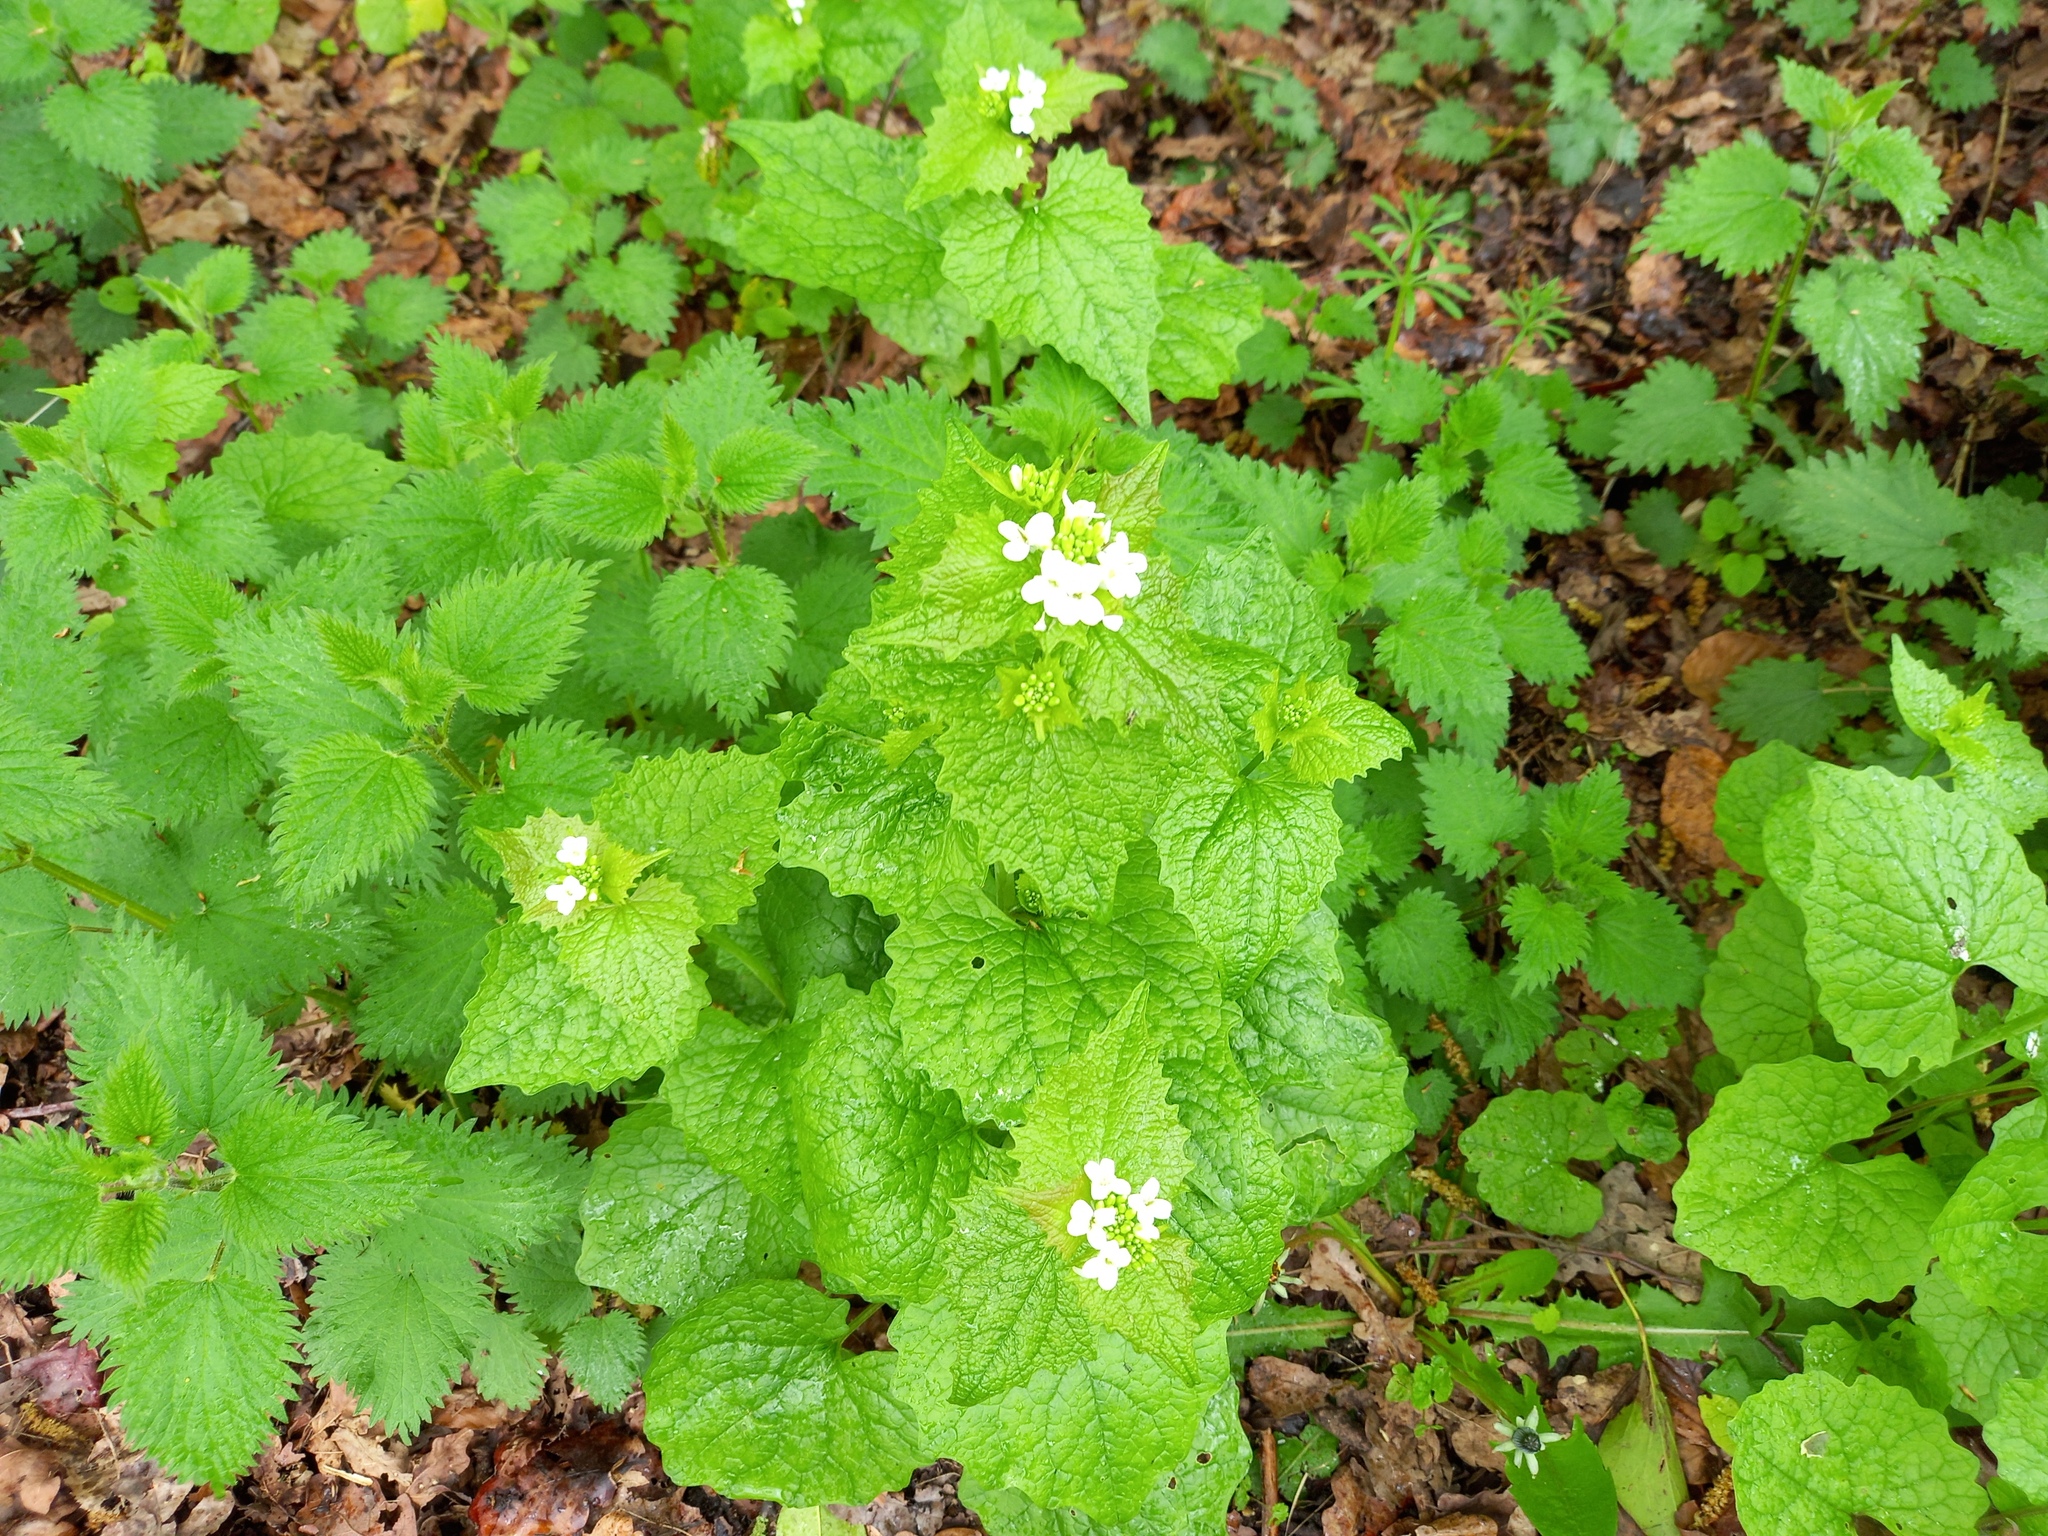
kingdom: Plantae
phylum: Tracheophyta
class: Magnoliopsida
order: Brassicales
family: Brassicaceae
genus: Alliaria
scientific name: Alliaria petiolata
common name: Garlic mustard
